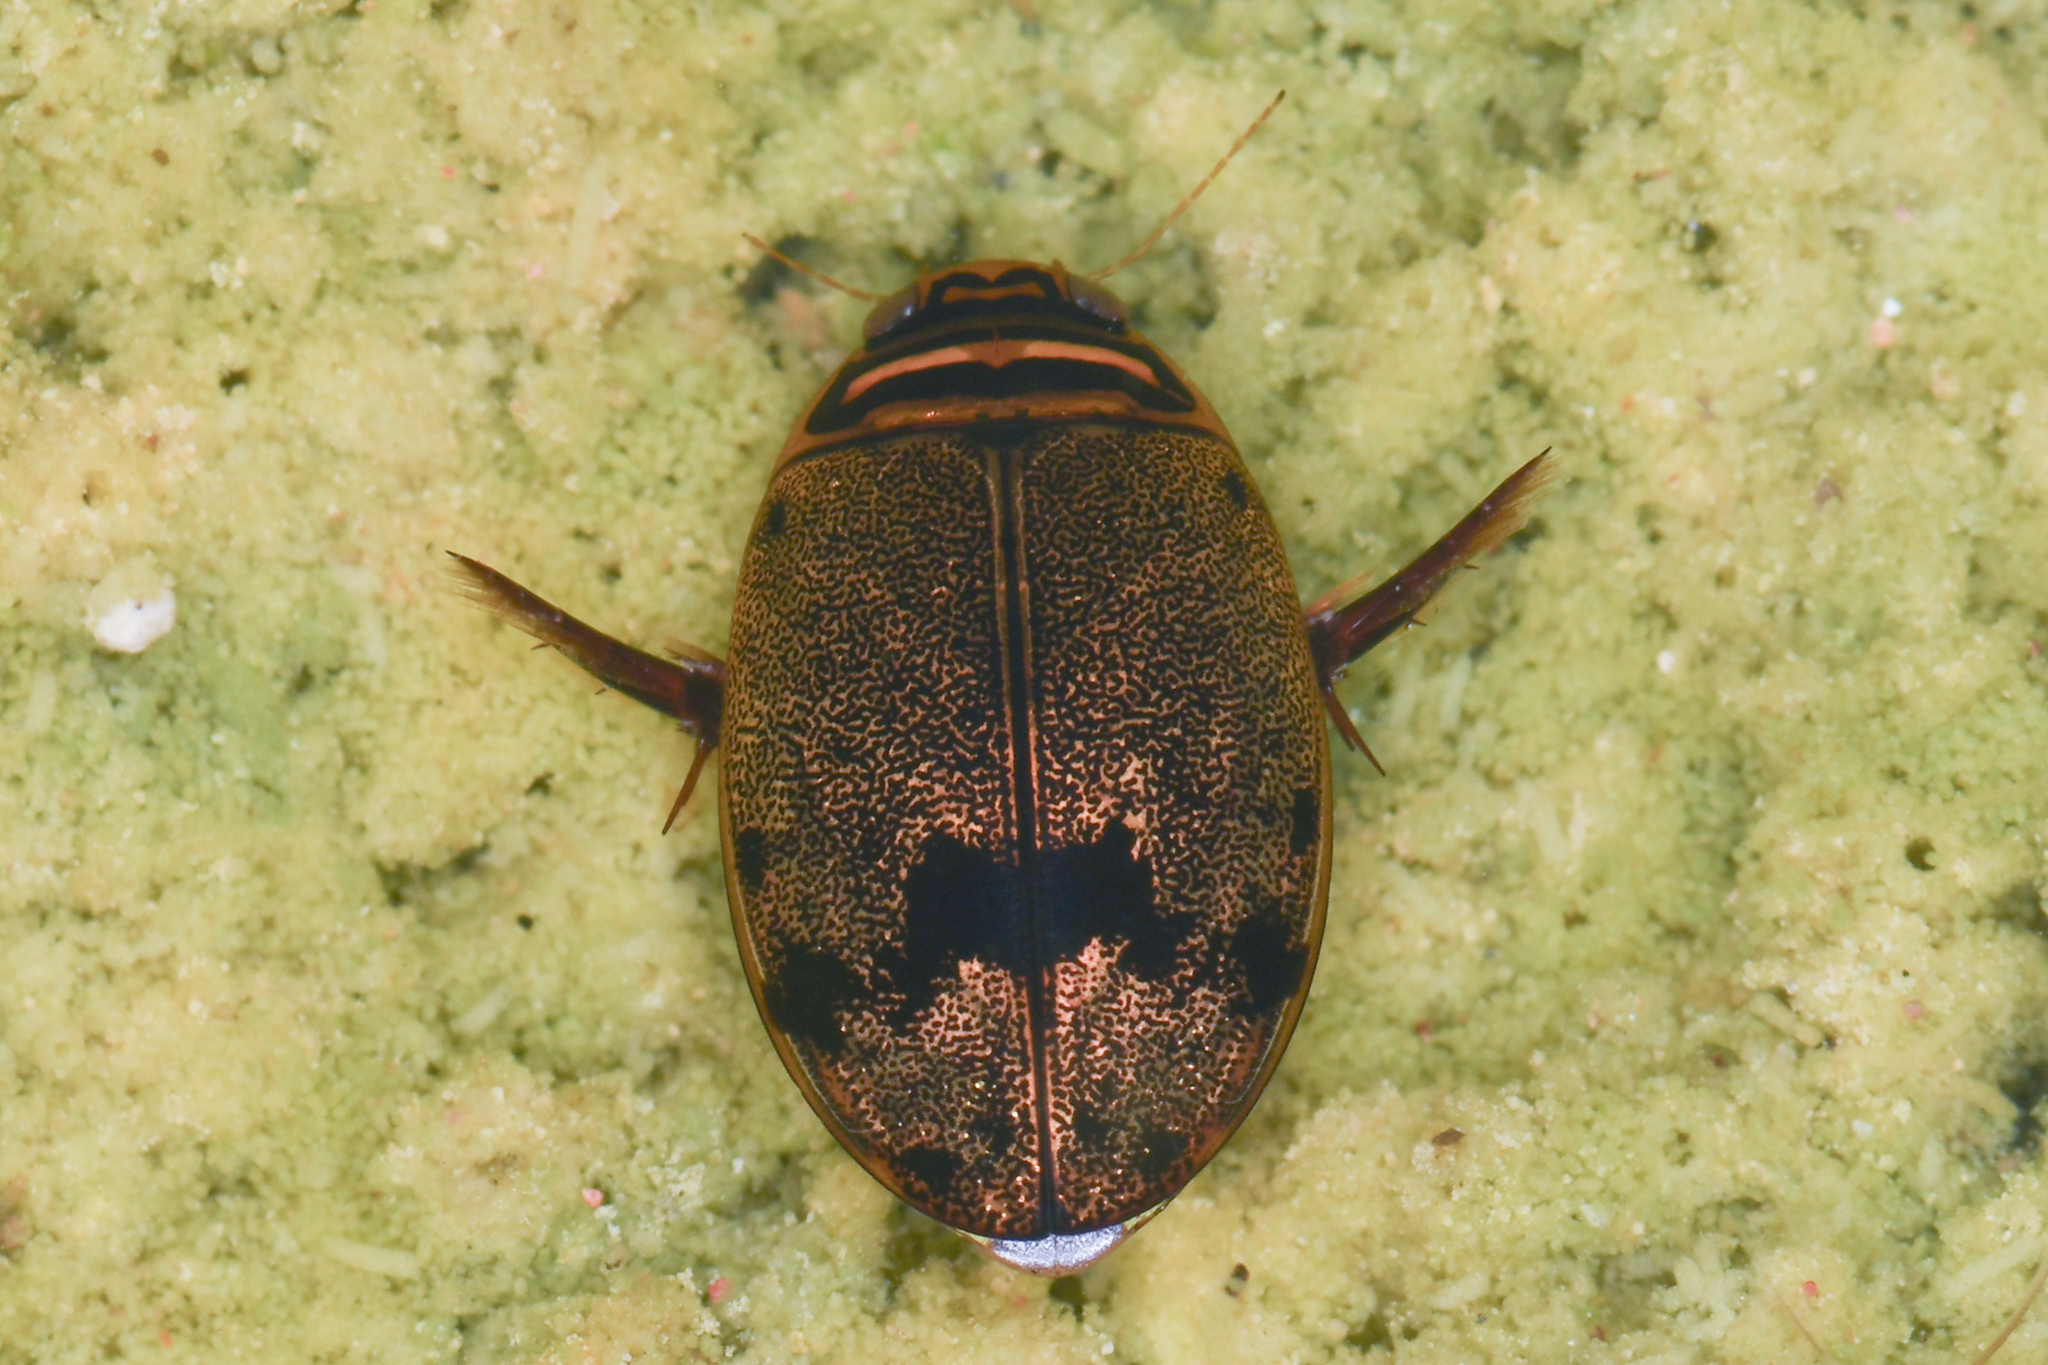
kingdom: Animalia
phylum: Arthropoda
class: Insecta
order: Coleoptera
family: Dytiscidae
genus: Thermonectus
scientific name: Thermonectus nigrofasciatus
